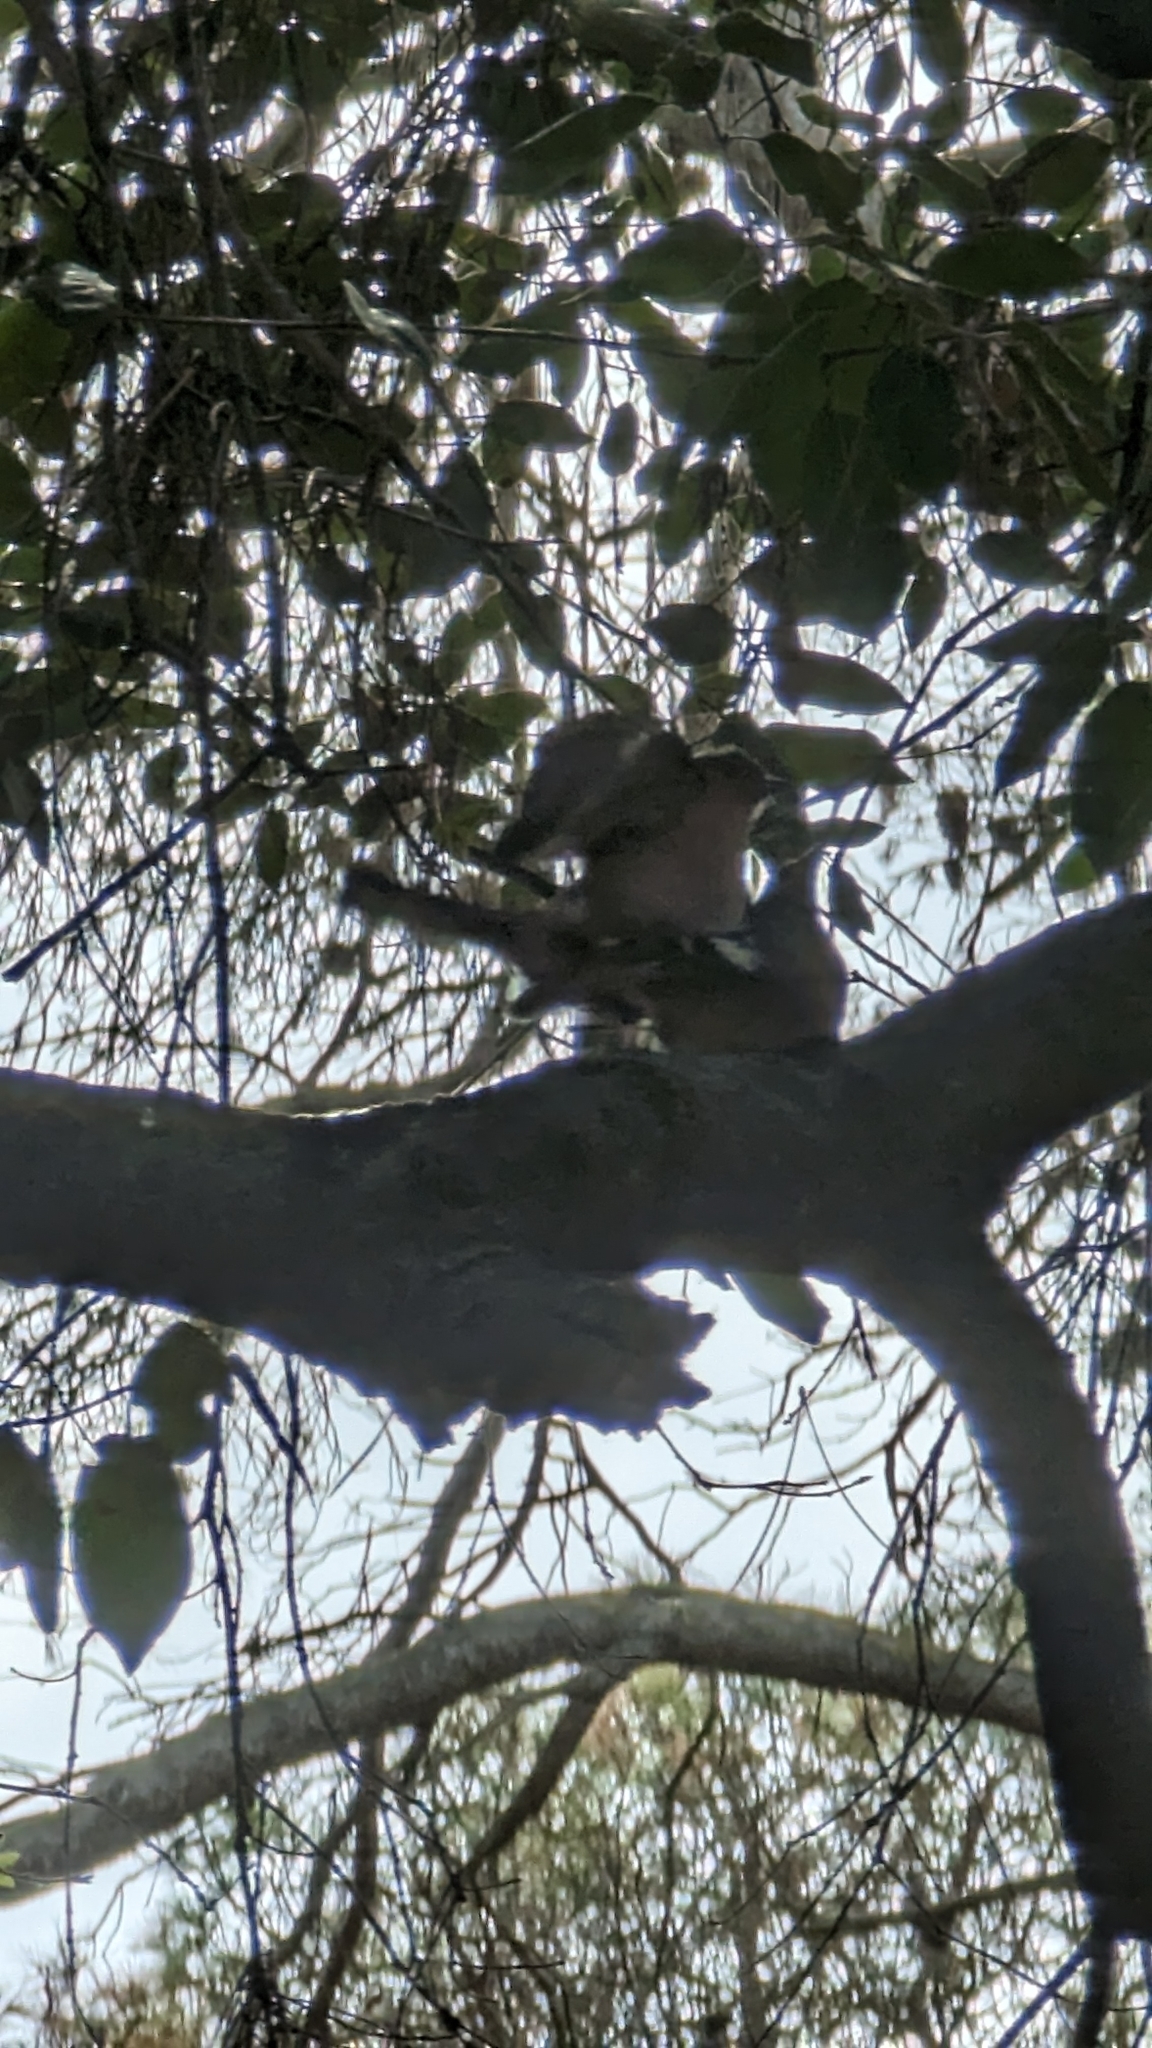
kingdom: Animalia
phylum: Chordata
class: Aves
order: Passeriformes
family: Fringillidae
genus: Fringilla
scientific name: Fringilla coelebs
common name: Common chaffinch
